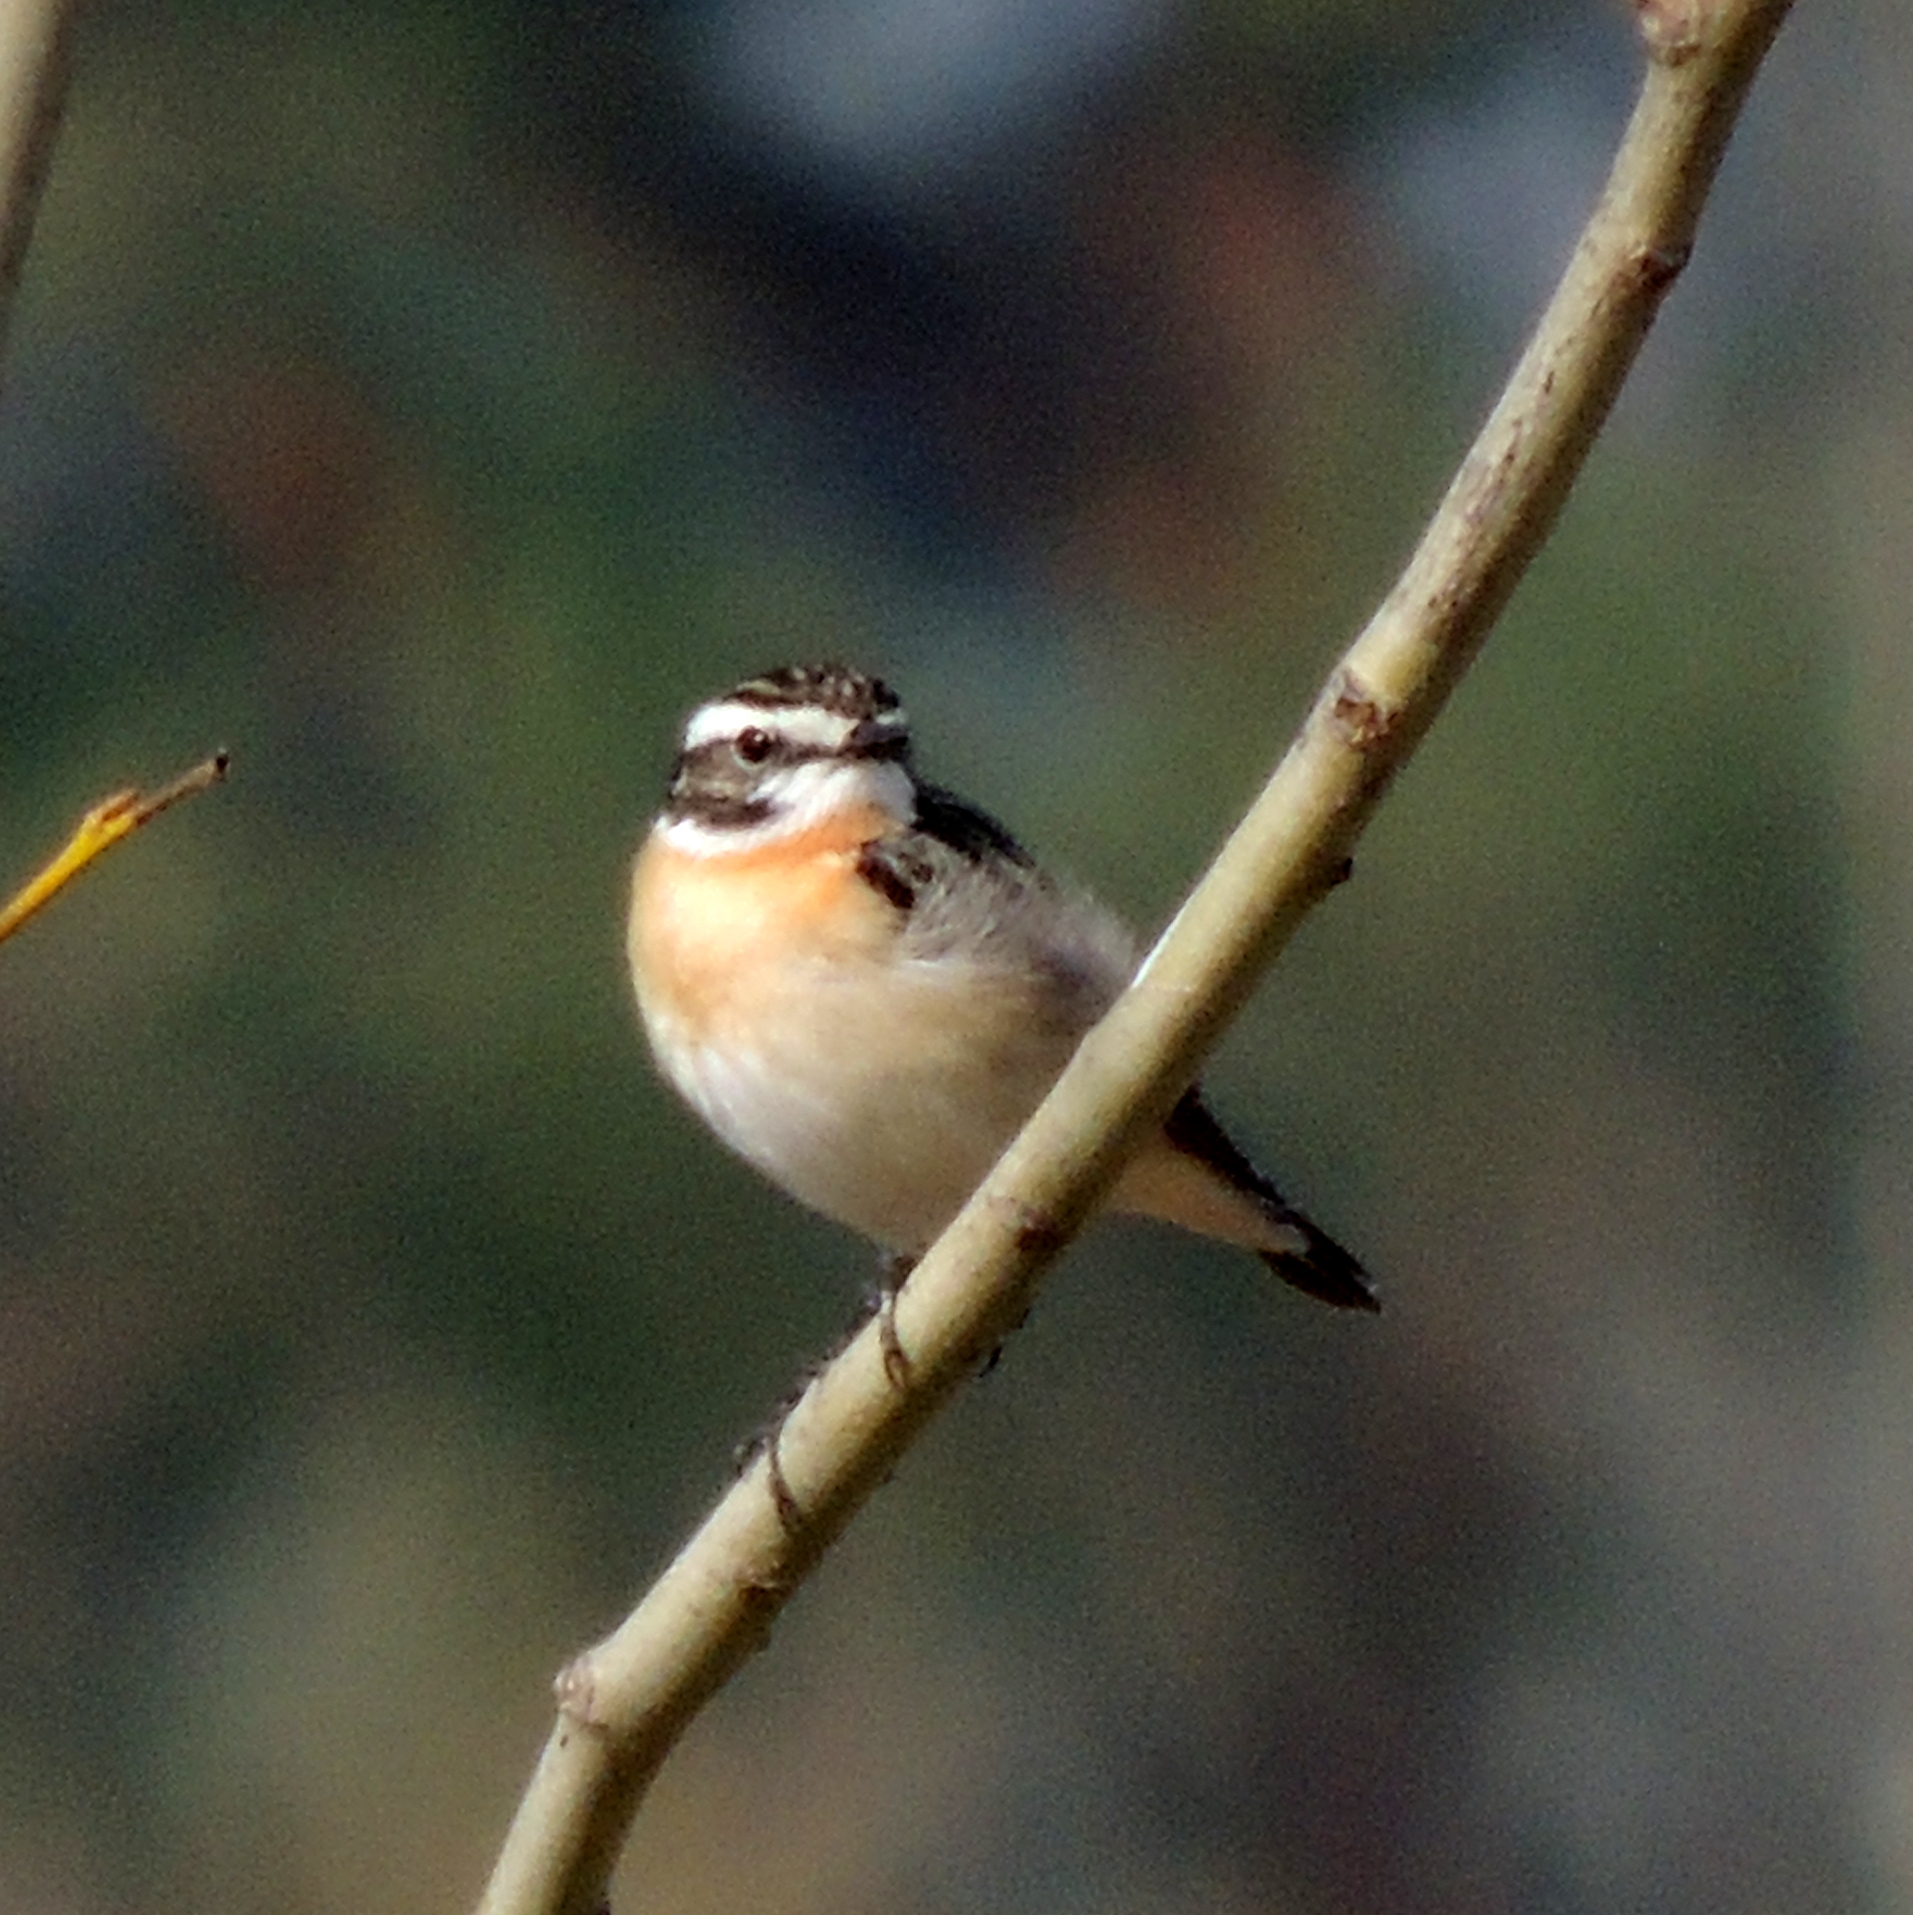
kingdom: Animalia
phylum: Chordata
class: Aves
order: Passeriformes
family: Muscicapidae
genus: Saxicola
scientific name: Saxicola rubetra
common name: Whinchat
